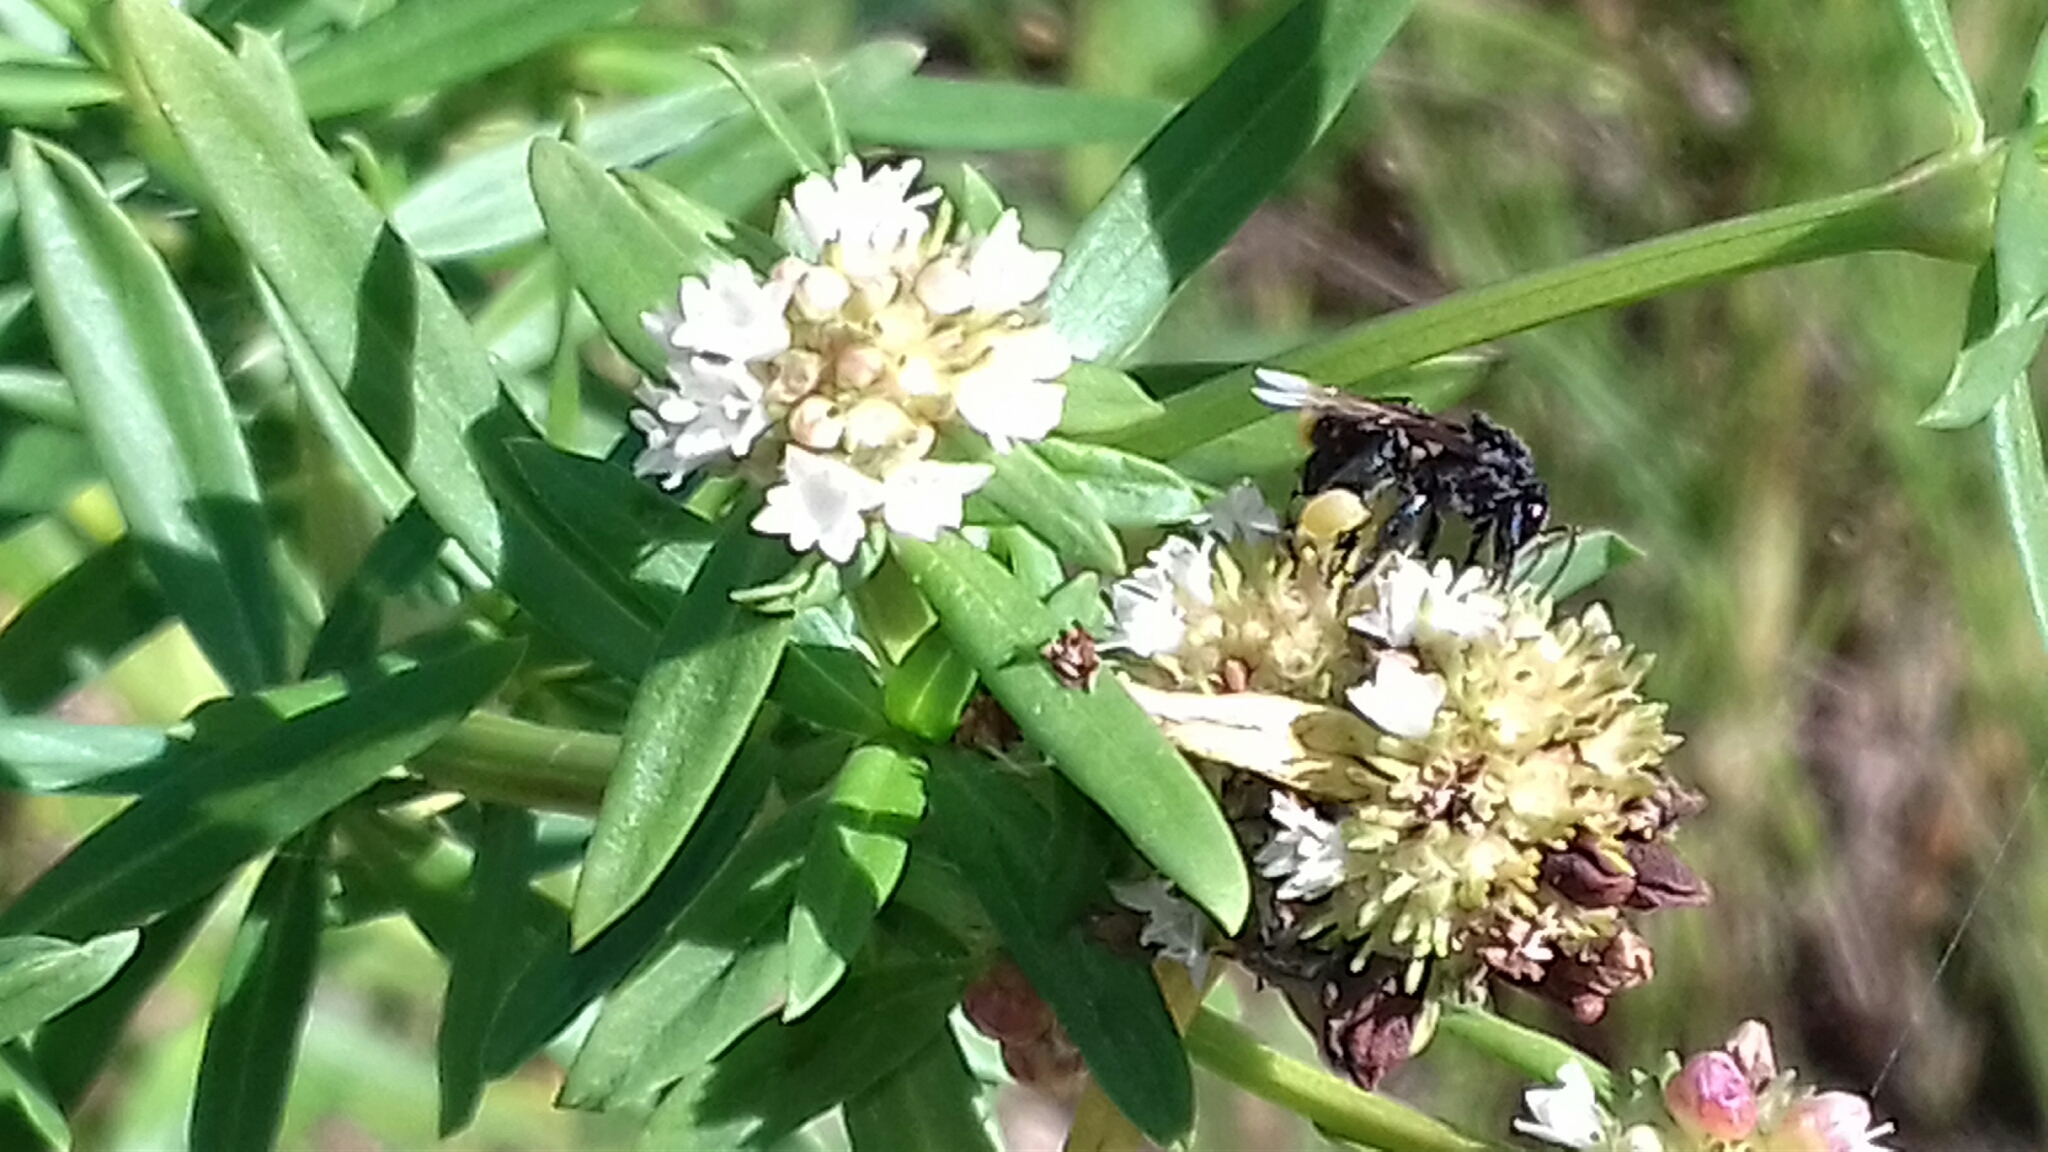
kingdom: Animalia
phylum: Arthropoda
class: Insecta
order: Hymenoptera
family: Apidae
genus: Frieseomelitta
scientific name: Frieseomelitta nigra
